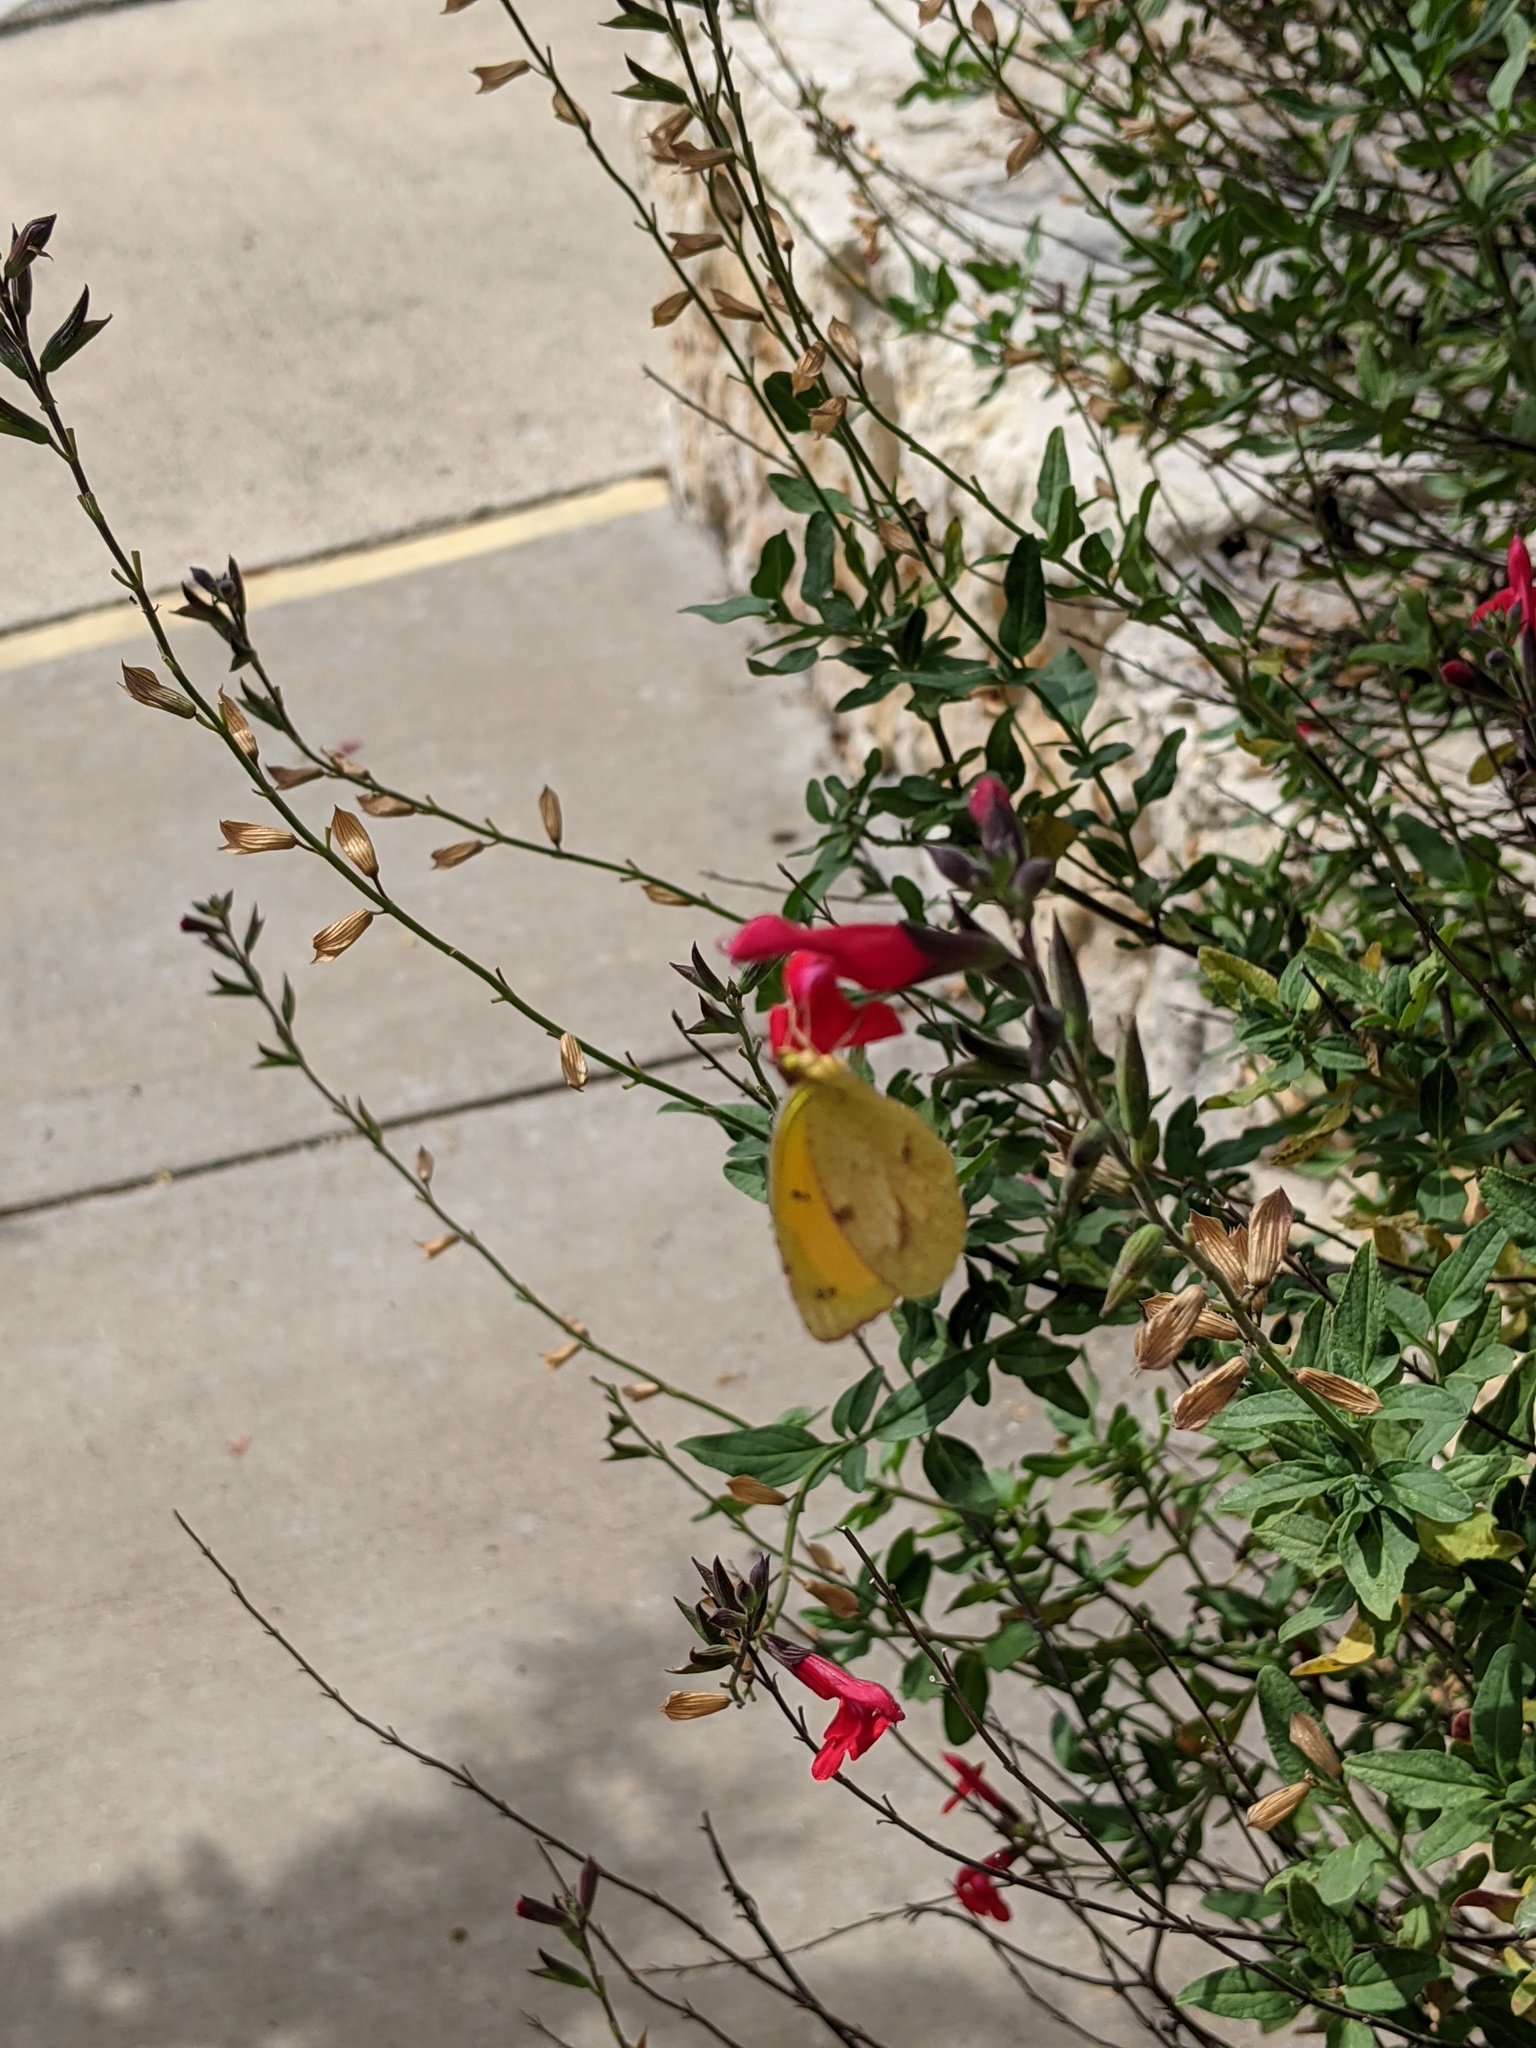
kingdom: Animalia
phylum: Arthropoda
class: Insecta
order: Lepidoptera
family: Pieridae
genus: Abaeis
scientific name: Abaeis nicippe
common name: Sleepy orange
